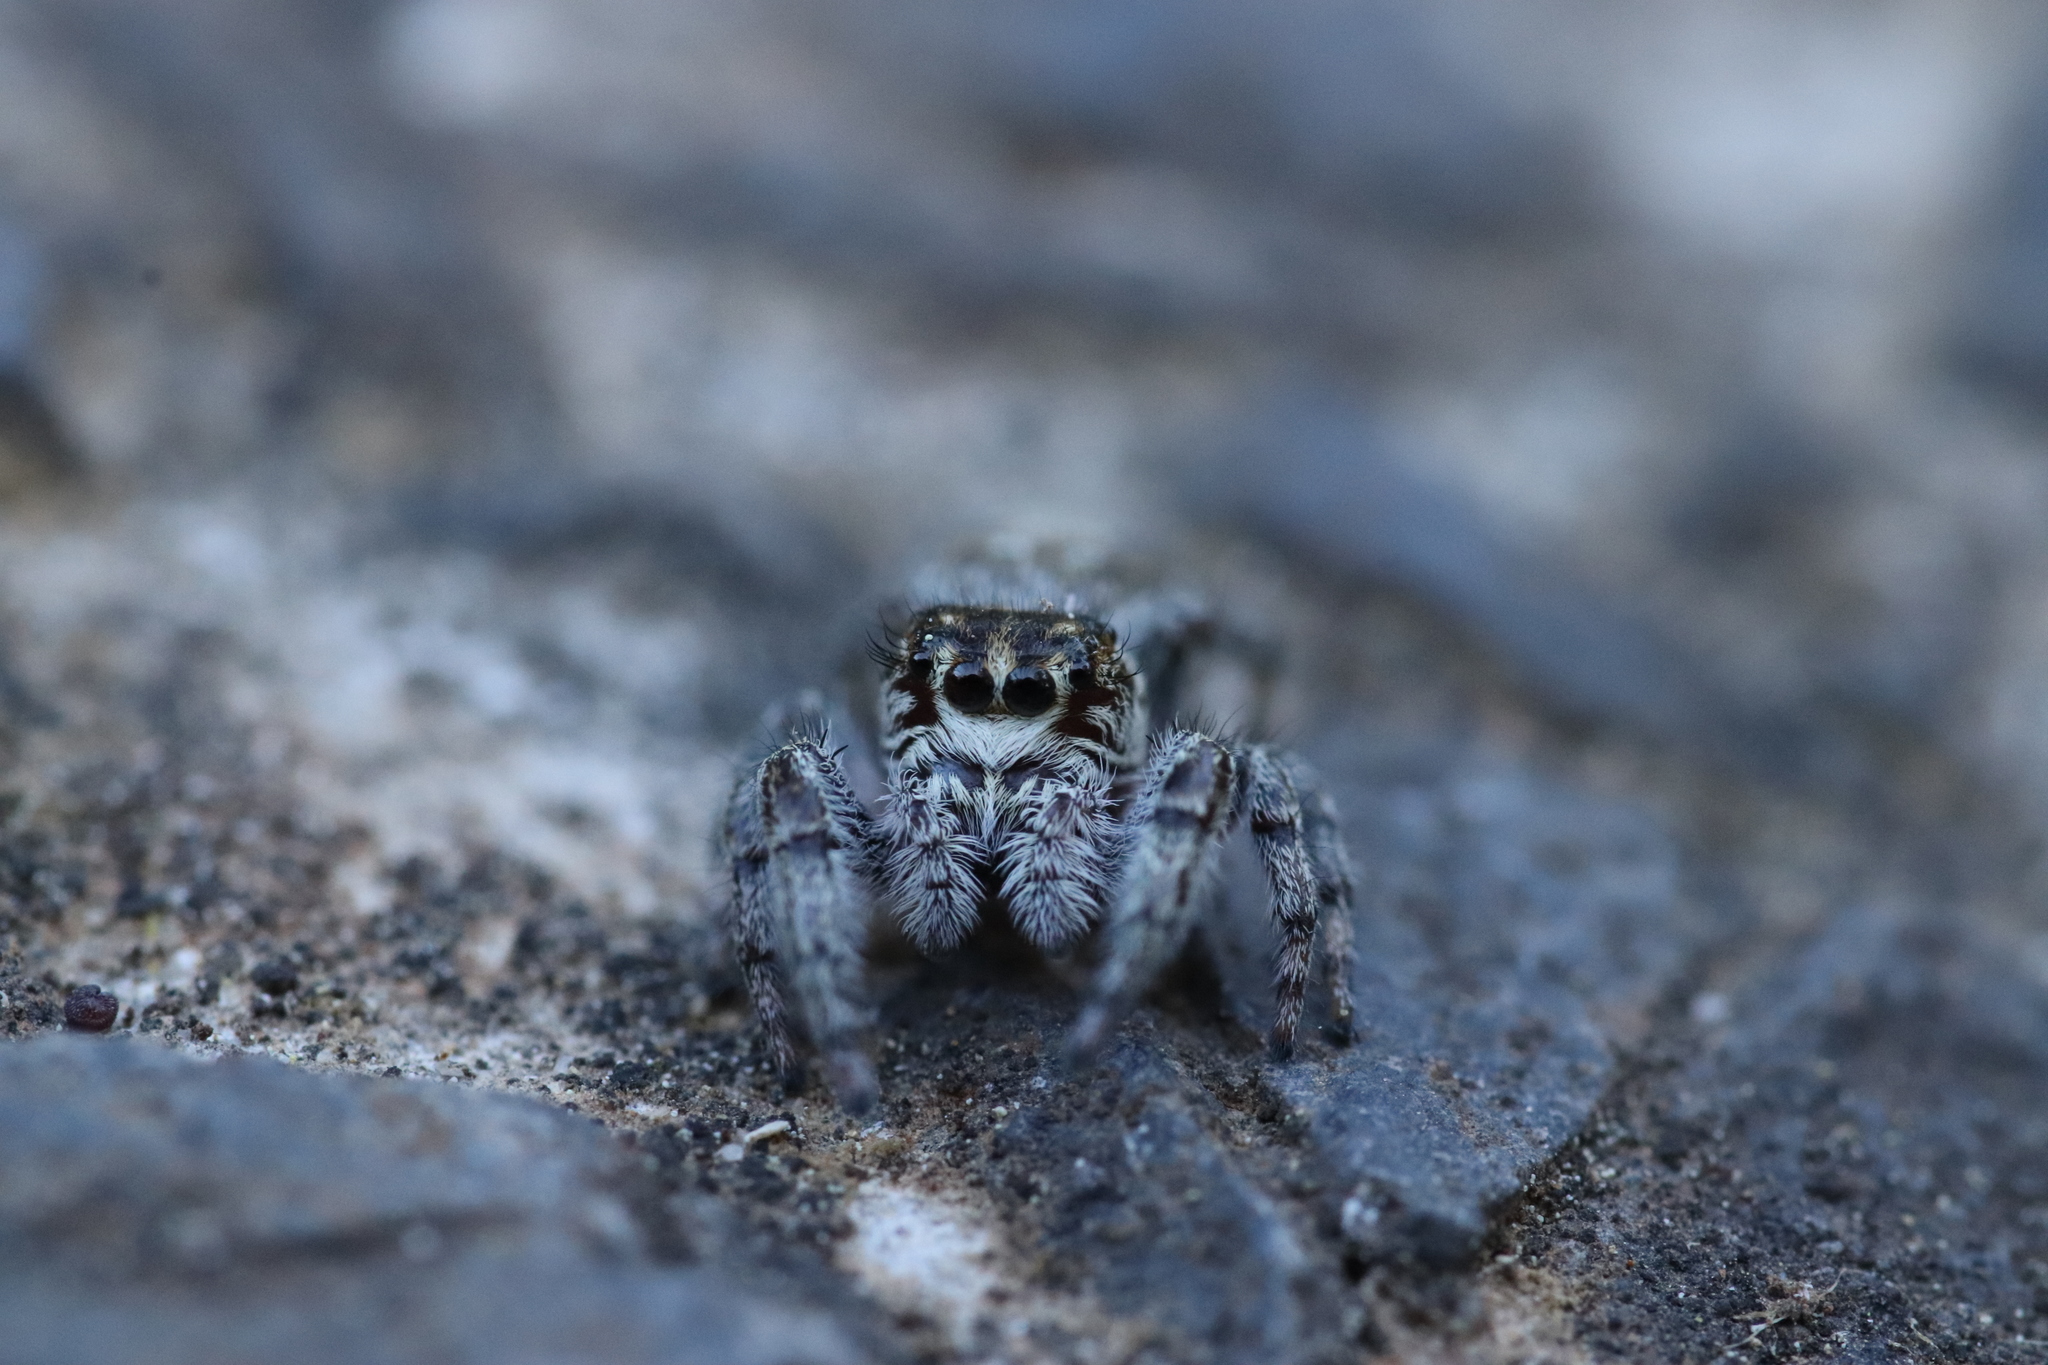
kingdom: Animalia
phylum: Arthropoda
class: Arachnida
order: Araneae
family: Salticidae
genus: Macaroeris
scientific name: Macaroeris nidicolens
